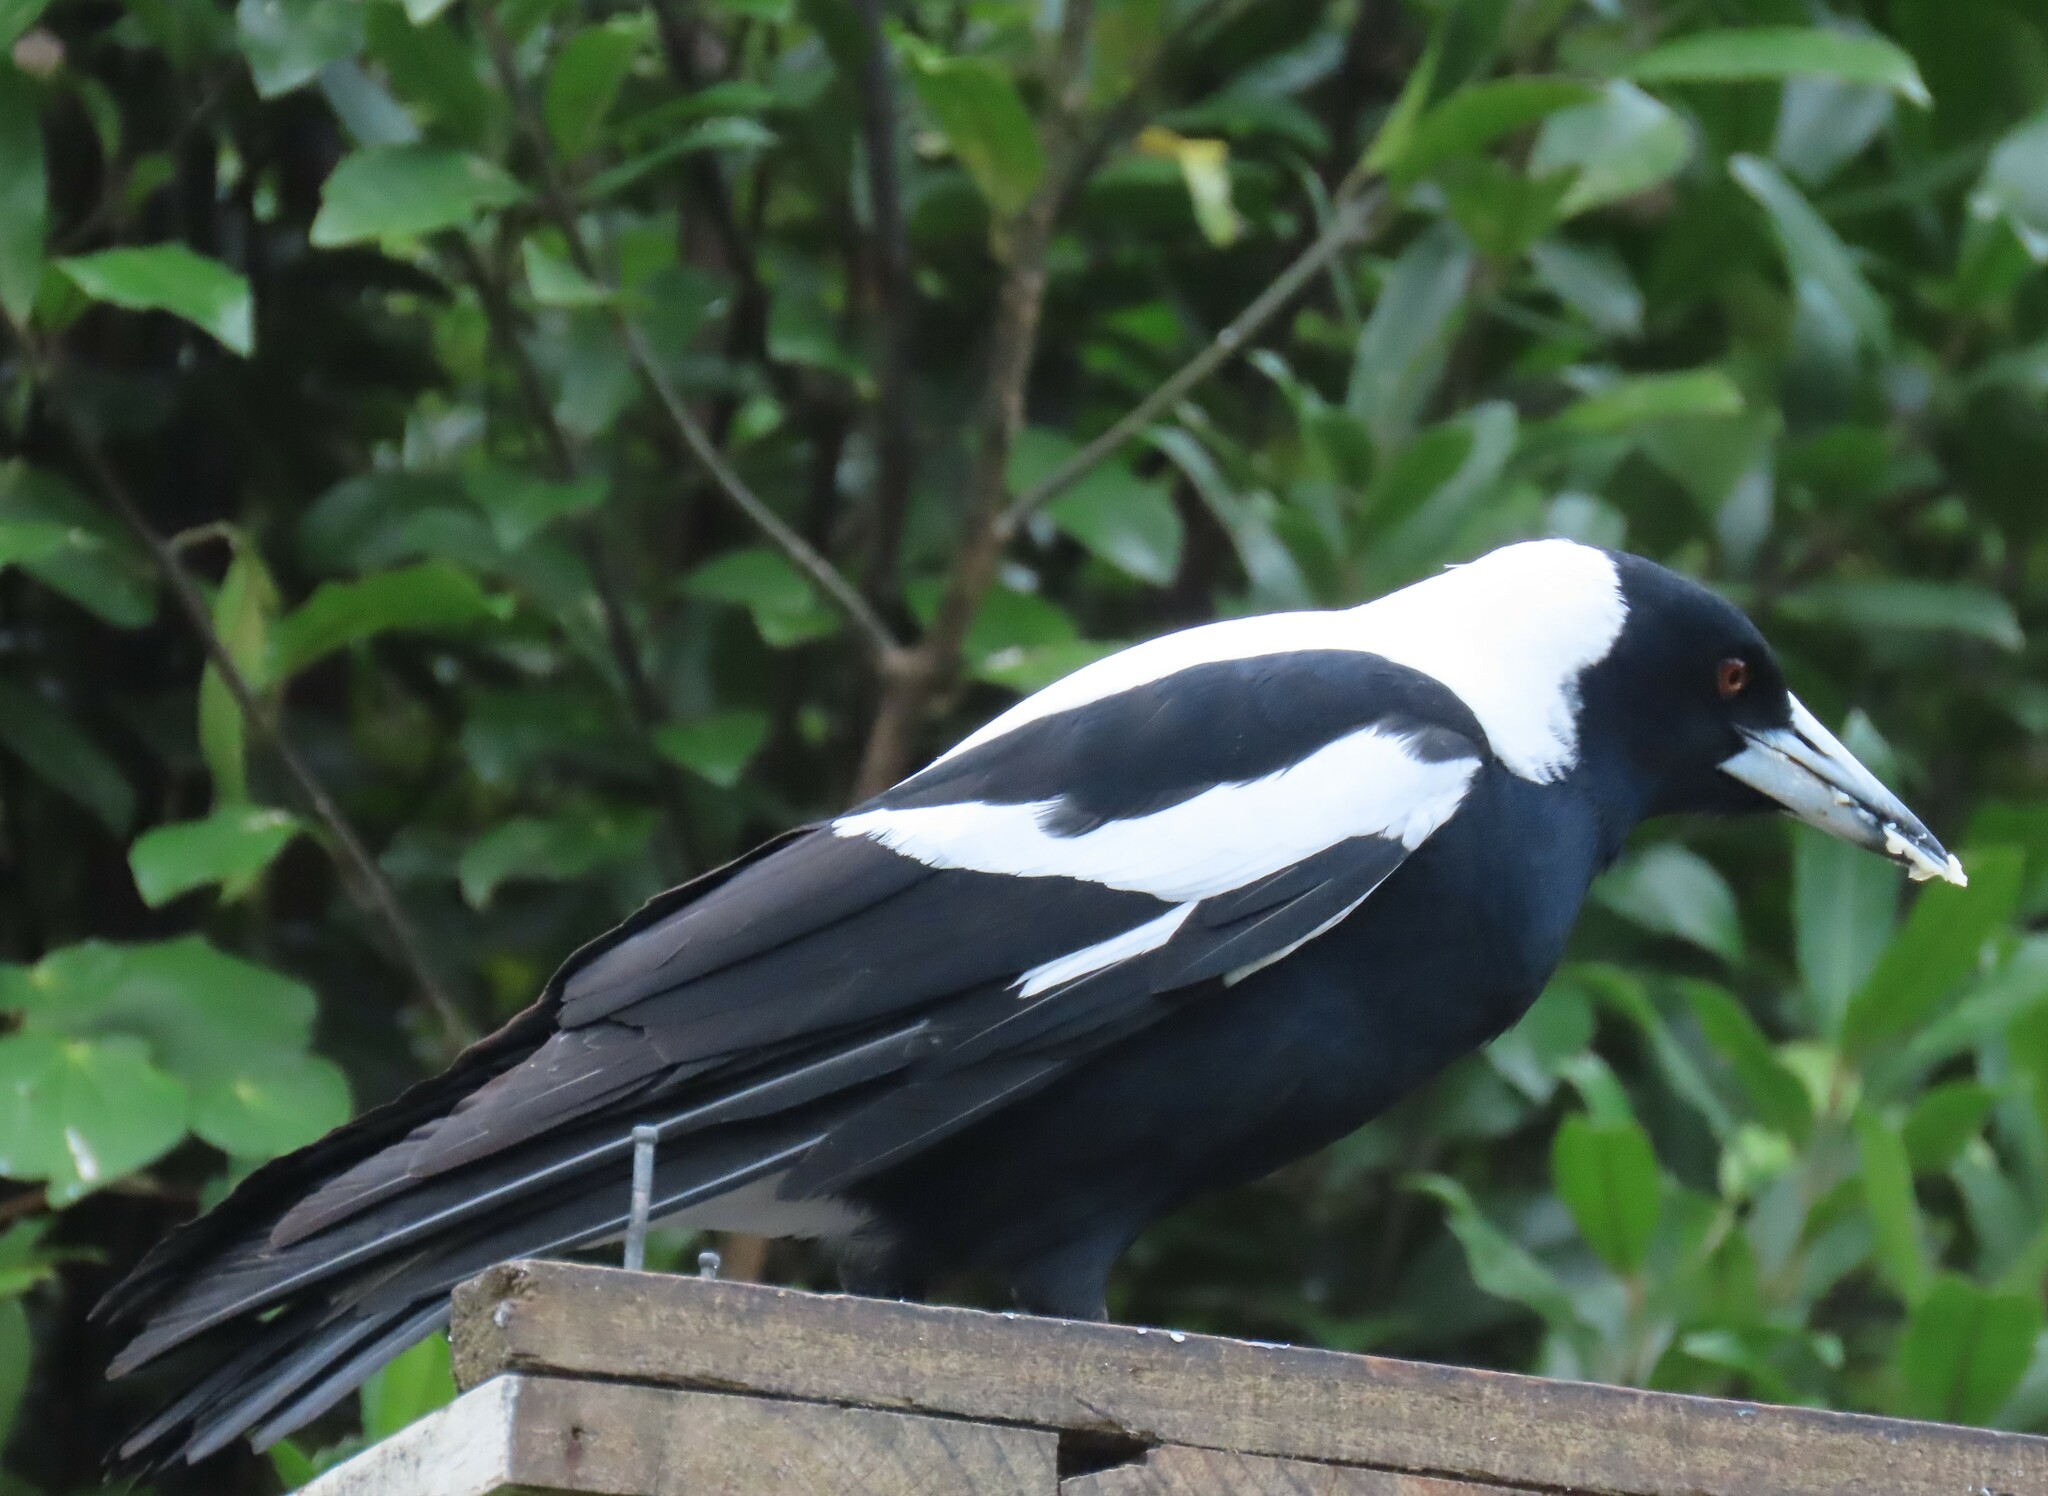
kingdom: Animalia
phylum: Chordata
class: Aves
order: Passeriformes
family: Cracticidae
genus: Gymnorhina
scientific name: Gymnorhina tibicen
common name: Australian magpie
